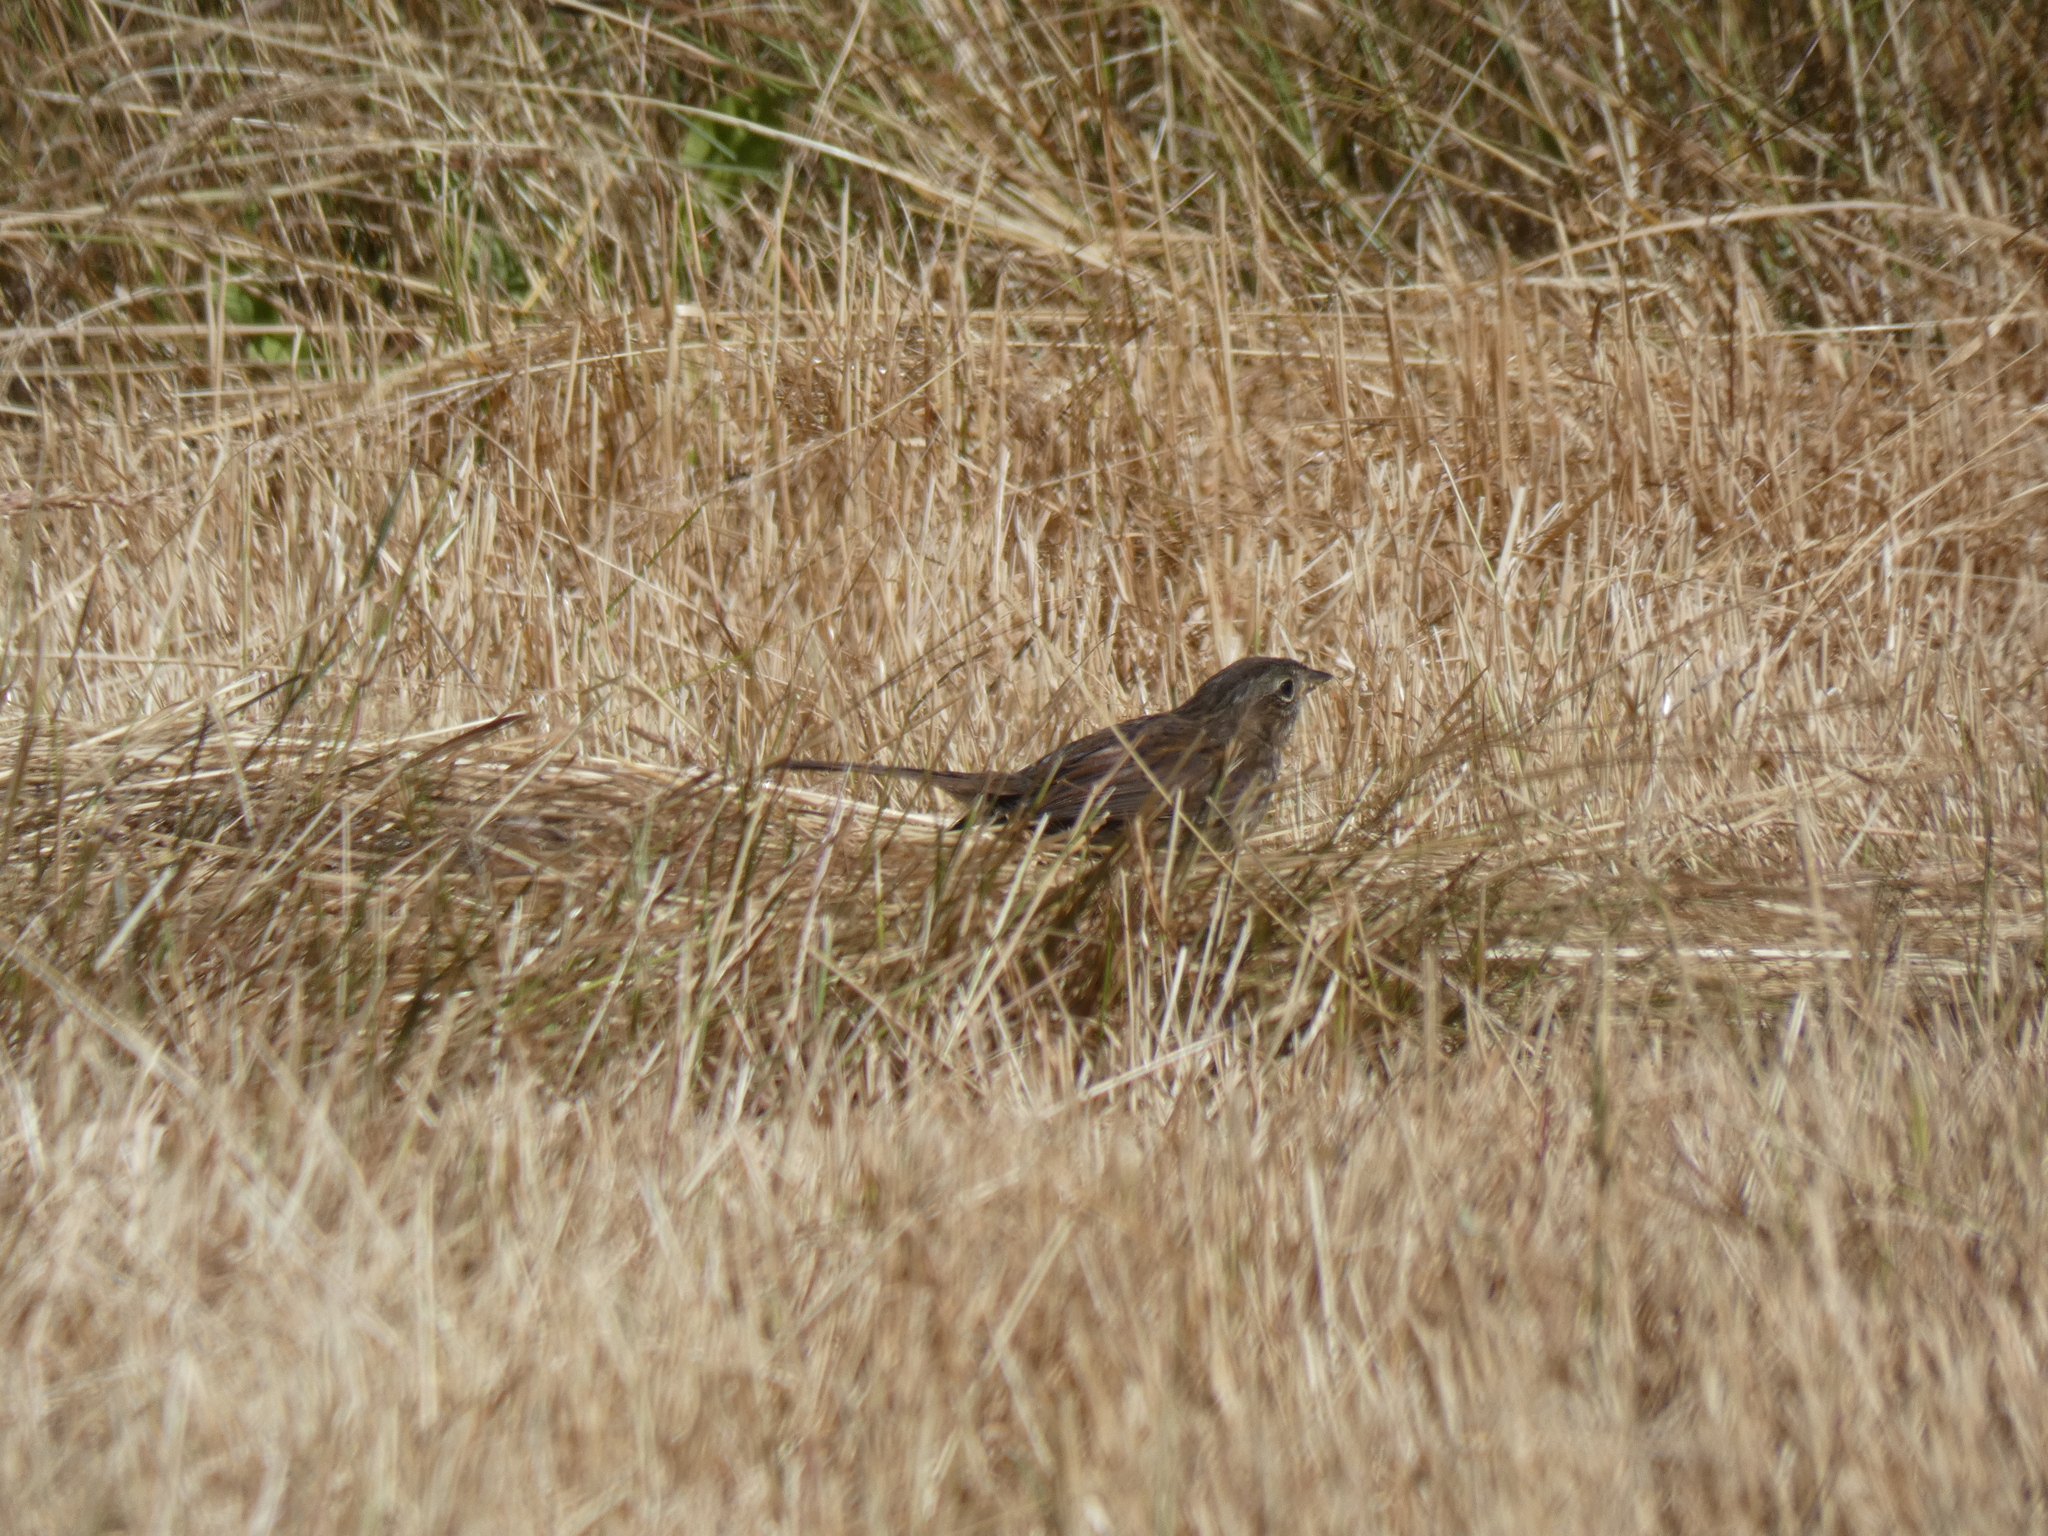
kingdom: Animalia
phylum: Chordata
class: Aves
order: Passeriformes
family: Passerellidae
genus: Melospiza
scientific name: Melospiza melodia
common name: Song sparrow
